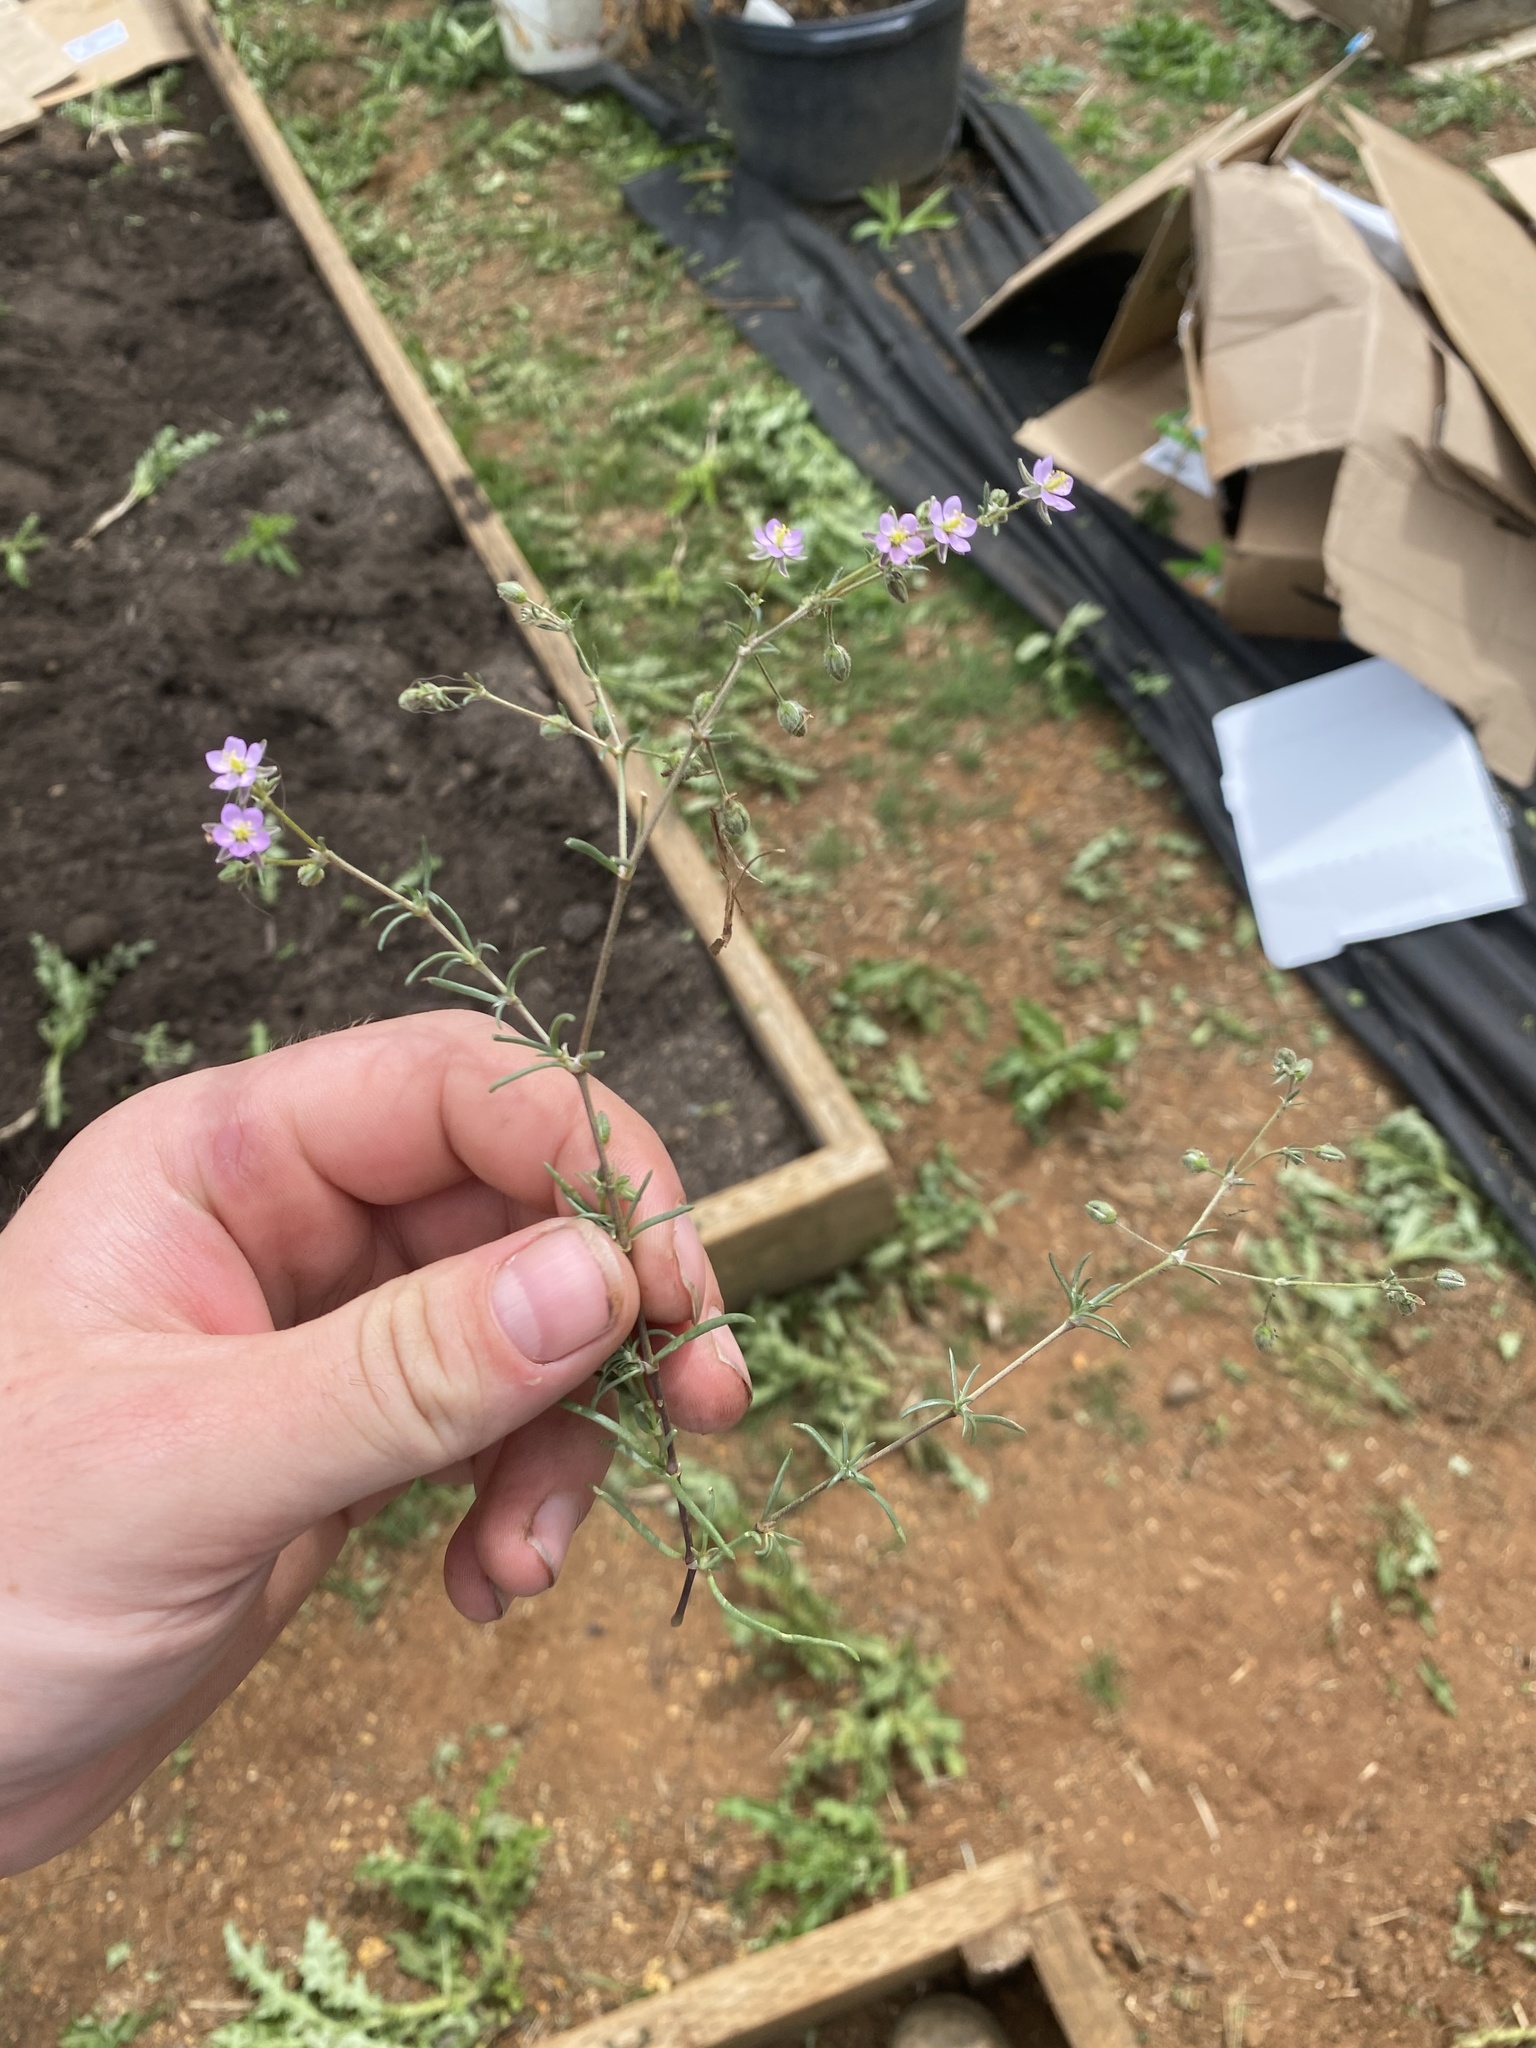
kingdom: Plantae
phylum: Tracheophyta
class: Magnoliopsida
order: Caryophyllales
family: Caryophyllaceae
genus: Spergularia
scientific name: Spergularia rubra
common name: Red sand-spurrey
